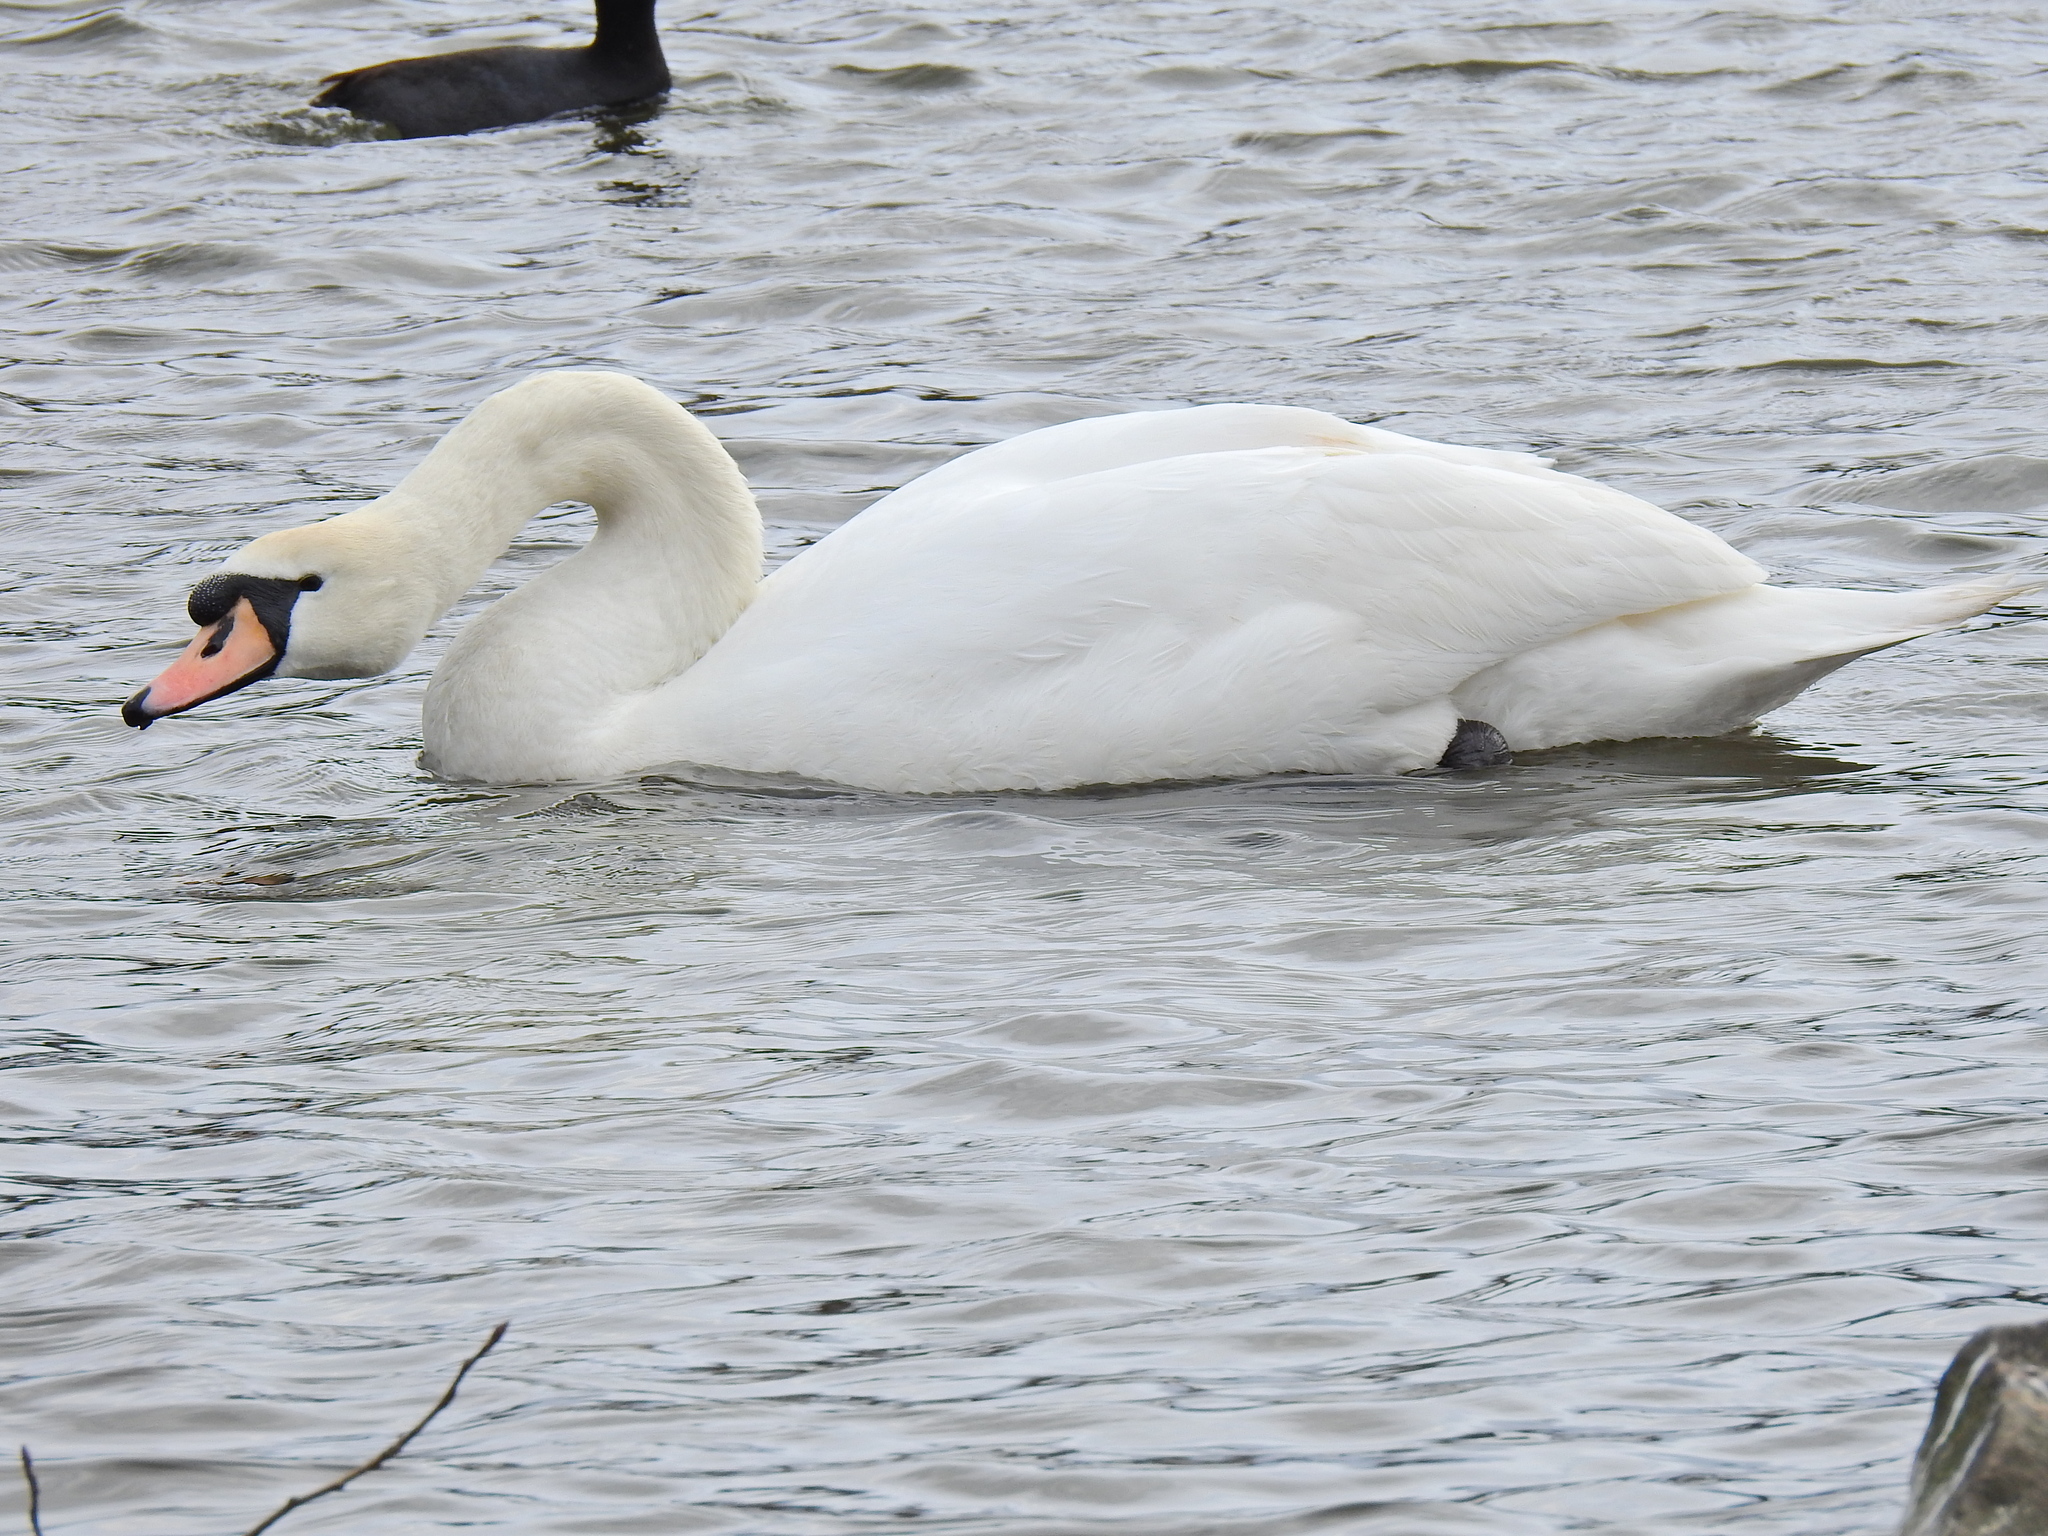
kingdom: Animalia
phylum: Chordata
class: Aves
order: Anseriformes
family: Anatidae
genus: Cygnus
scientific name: Cygnus olor
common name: Mute swan
